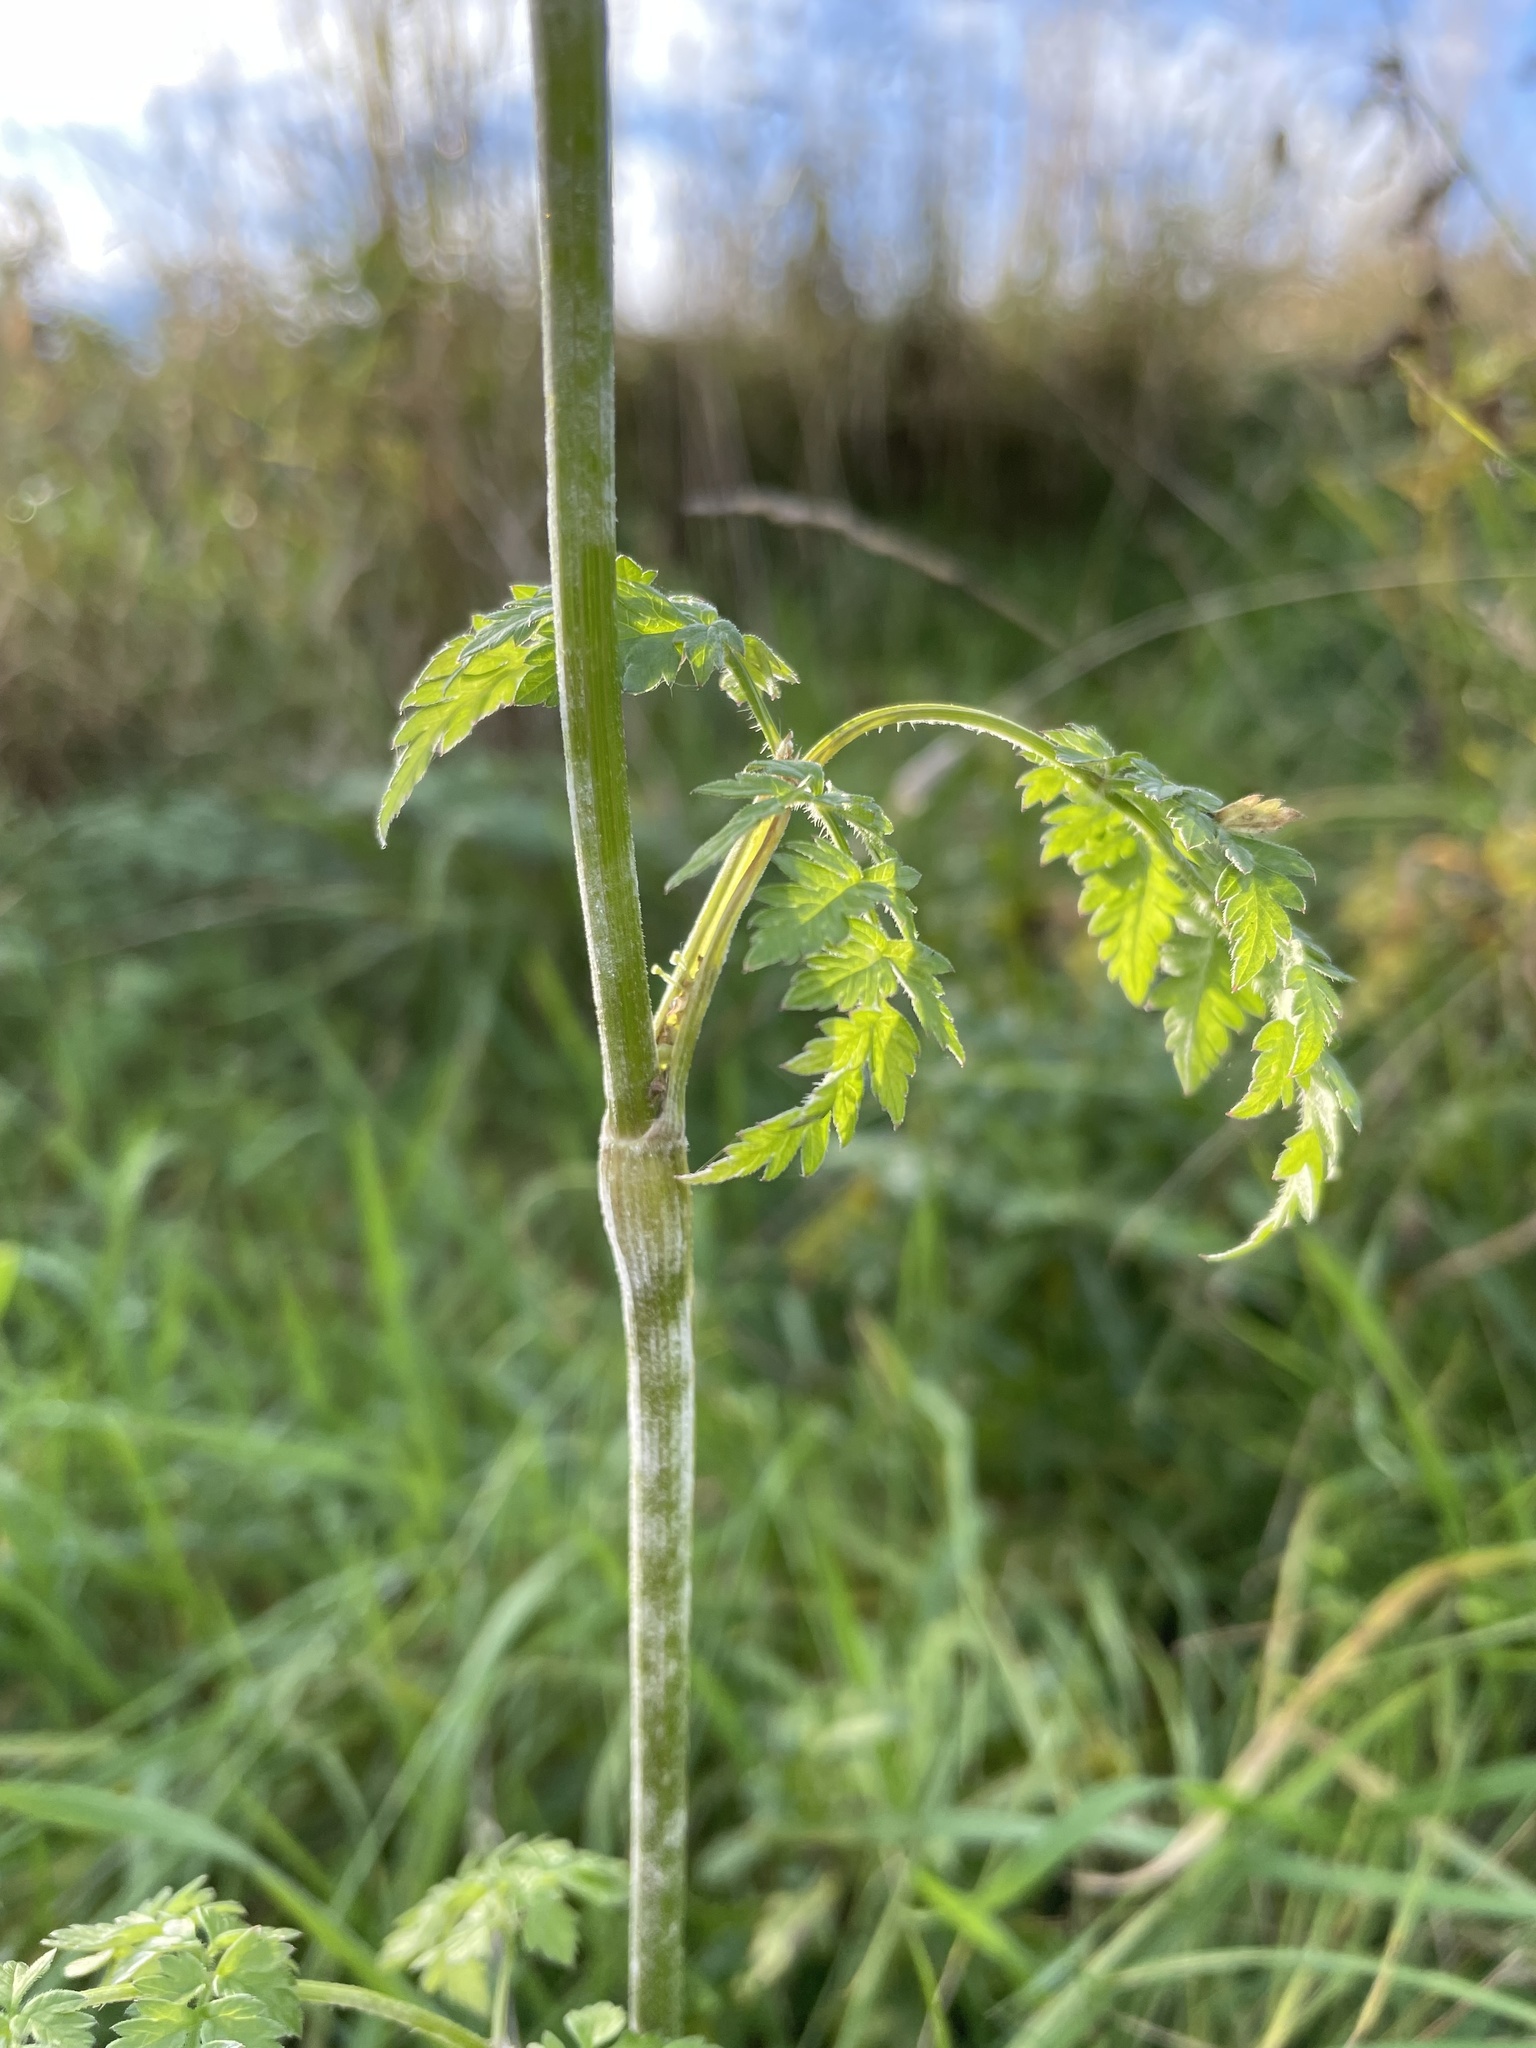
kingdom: Plantae
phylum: Tracheophyta
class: Magnoliopsida
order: Apiales
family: Apiaceae
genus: Anthriscus
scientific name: Anthriscus sylvestris
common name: Cow parsley
